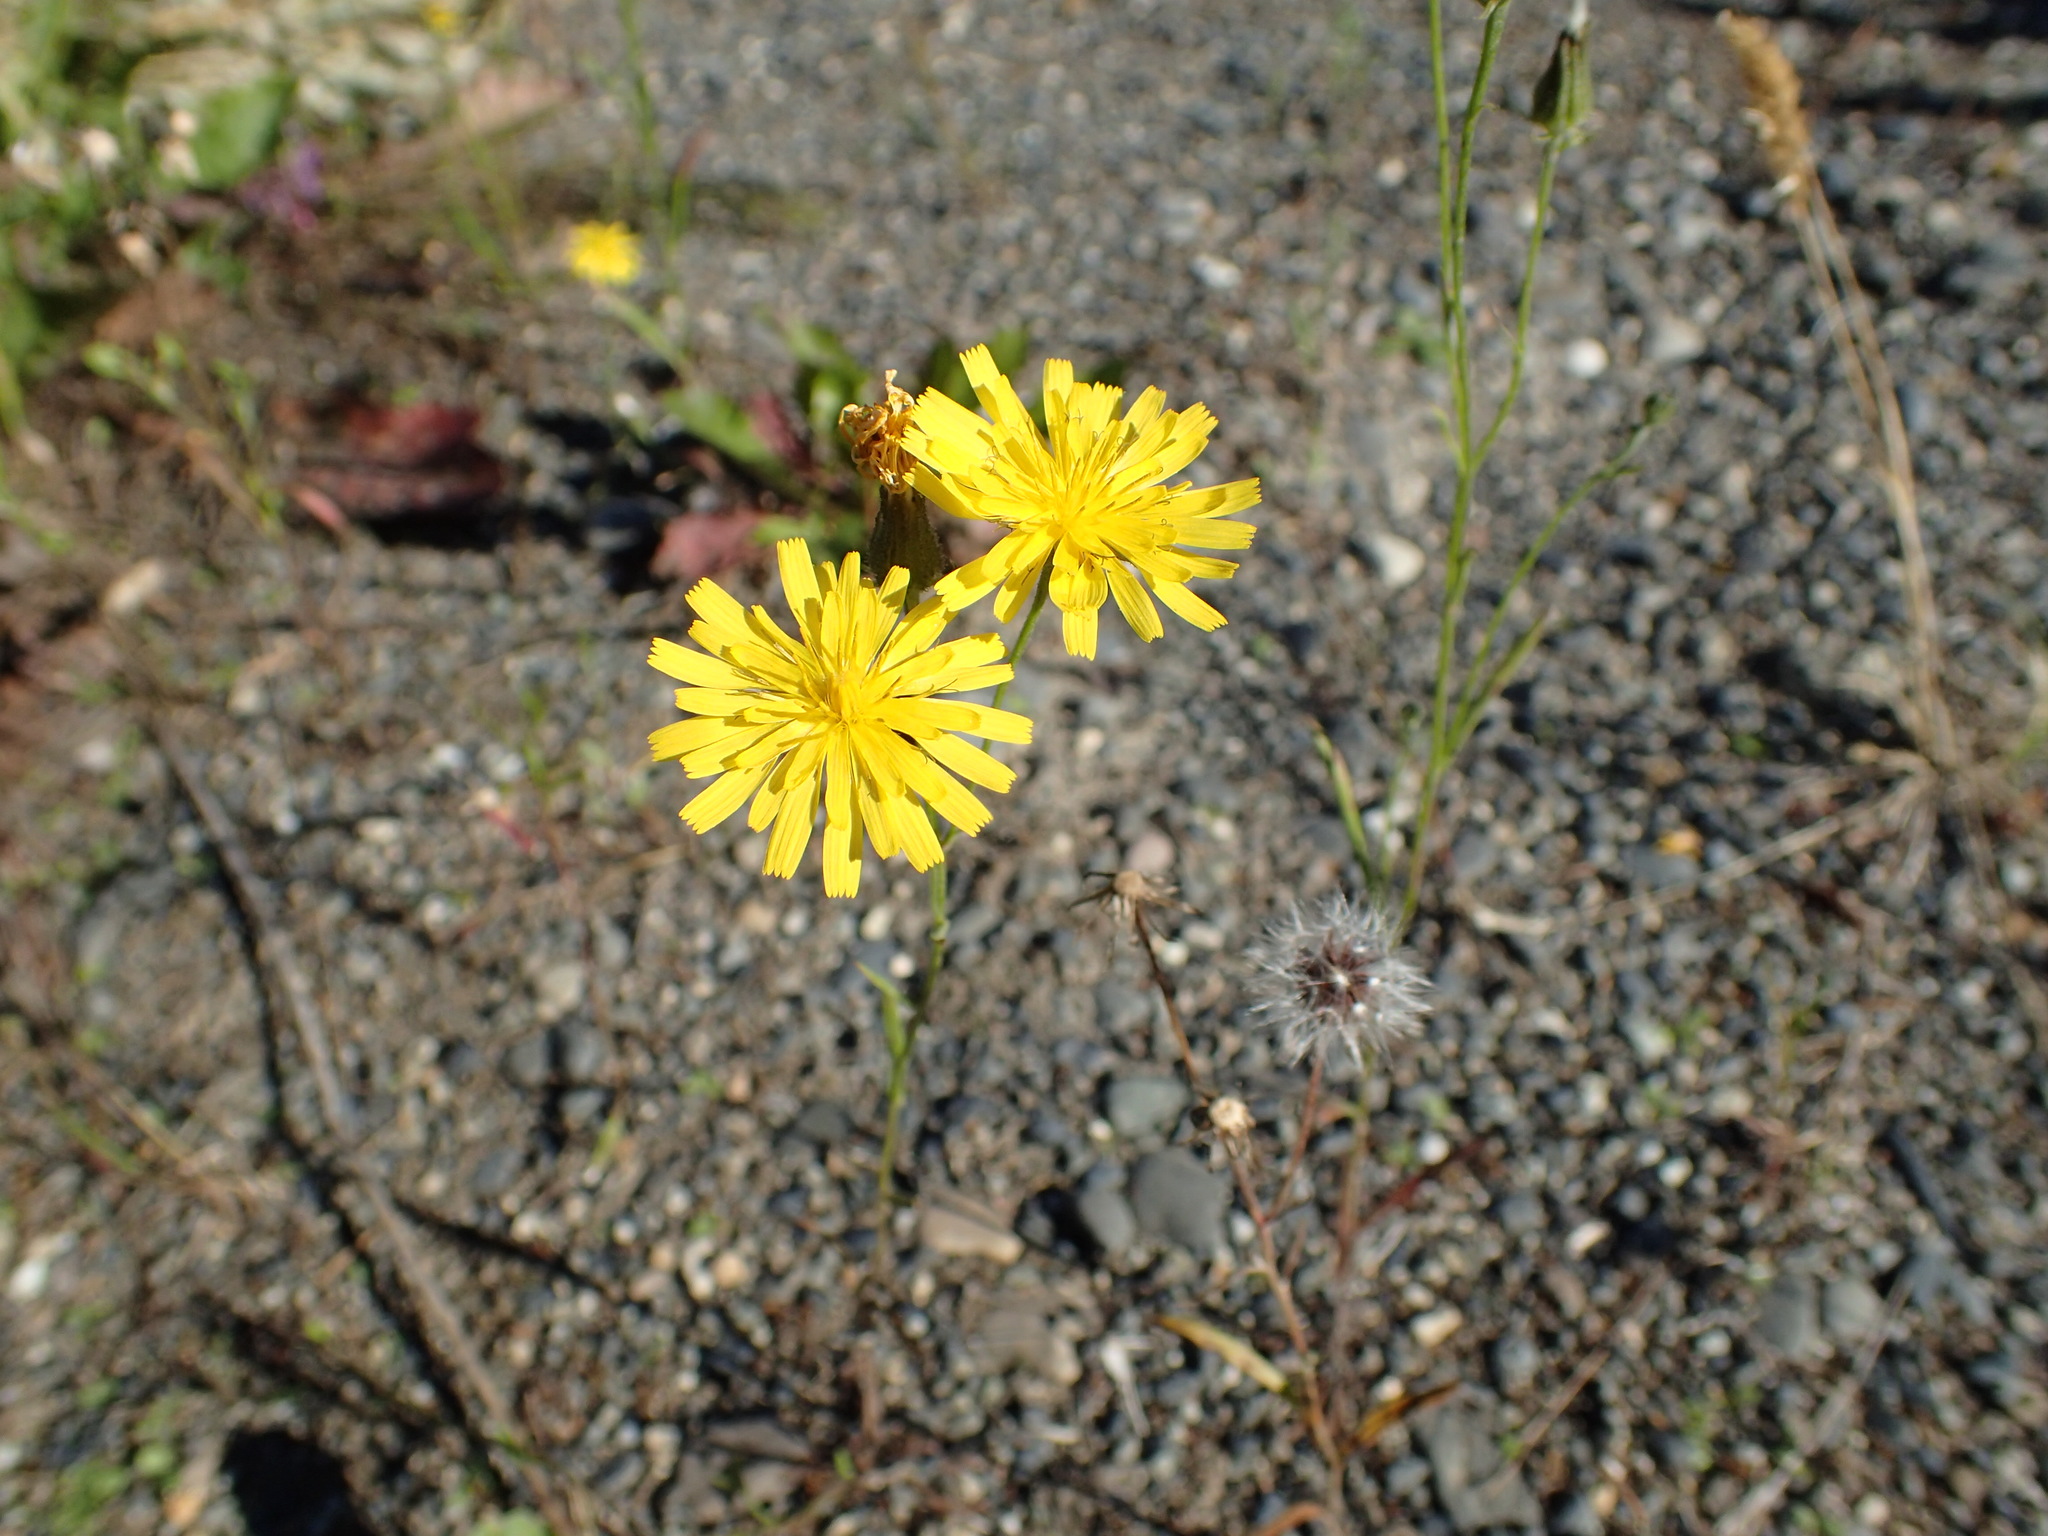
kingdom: Plantae
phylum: Tracheophyta
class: Magnoliopsida
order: Asterales
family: Asteraceae
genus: Crepis
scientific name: Crepis tectorum
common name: Narrow-leaved hawk's-beard
